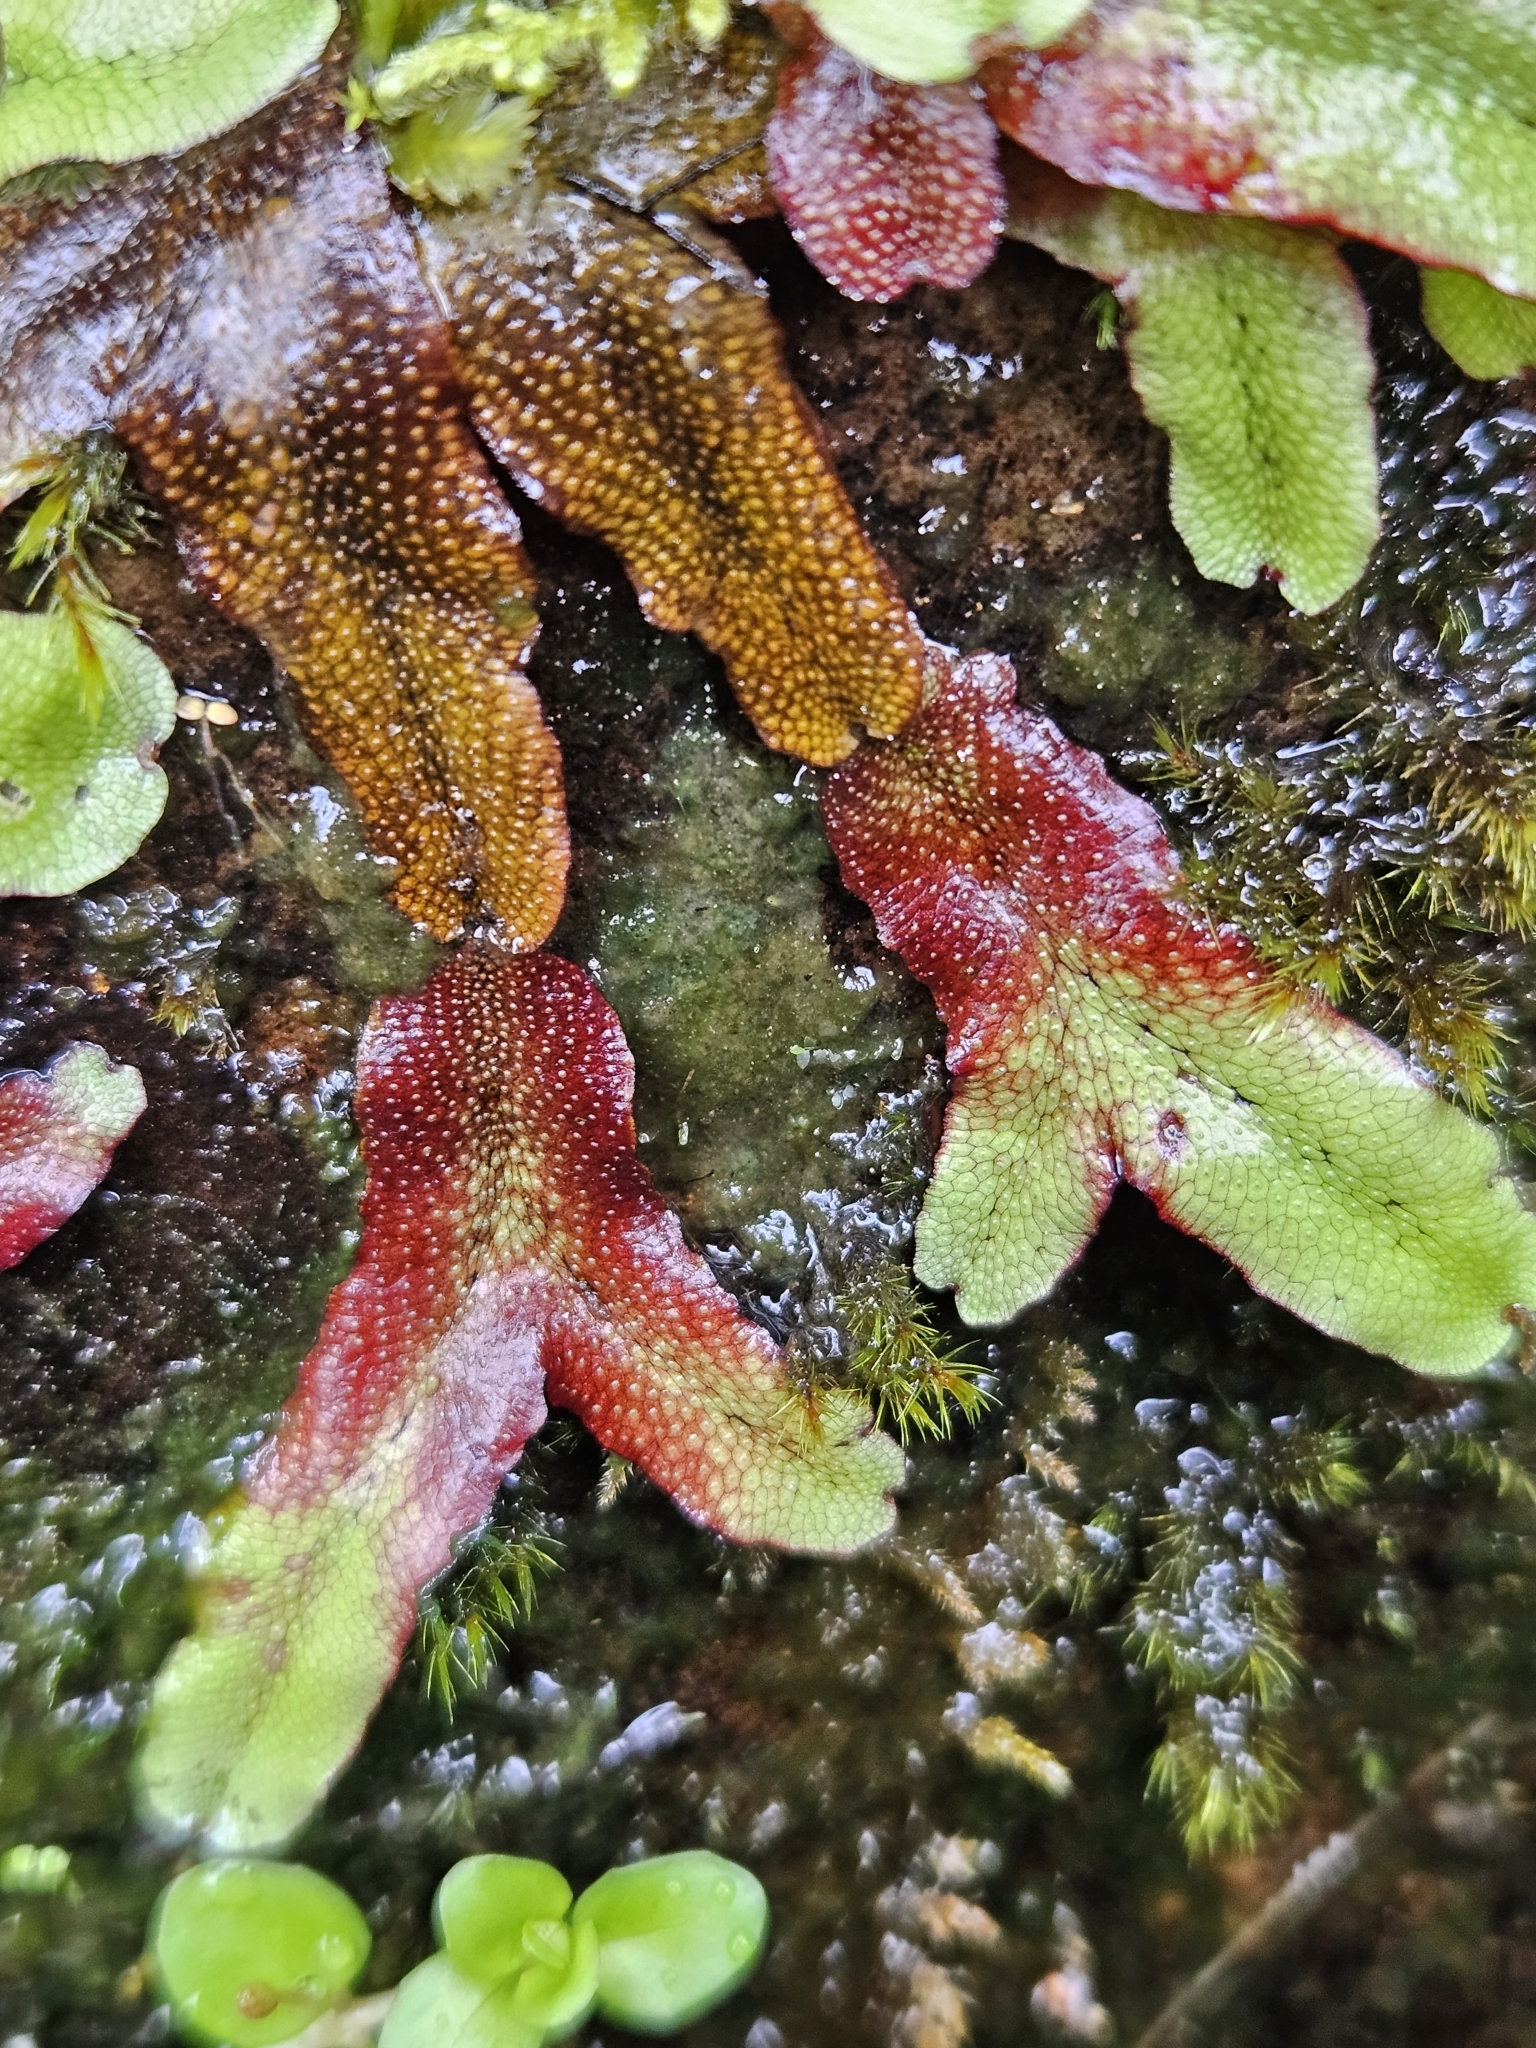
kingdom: Plantae
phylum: Marchantiophyta
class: Marchantiopsida
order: Marchantiales
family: Conocephalaceae
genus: Conocephalum
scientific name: Conocephalum conicum
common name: Great scented liverwort
